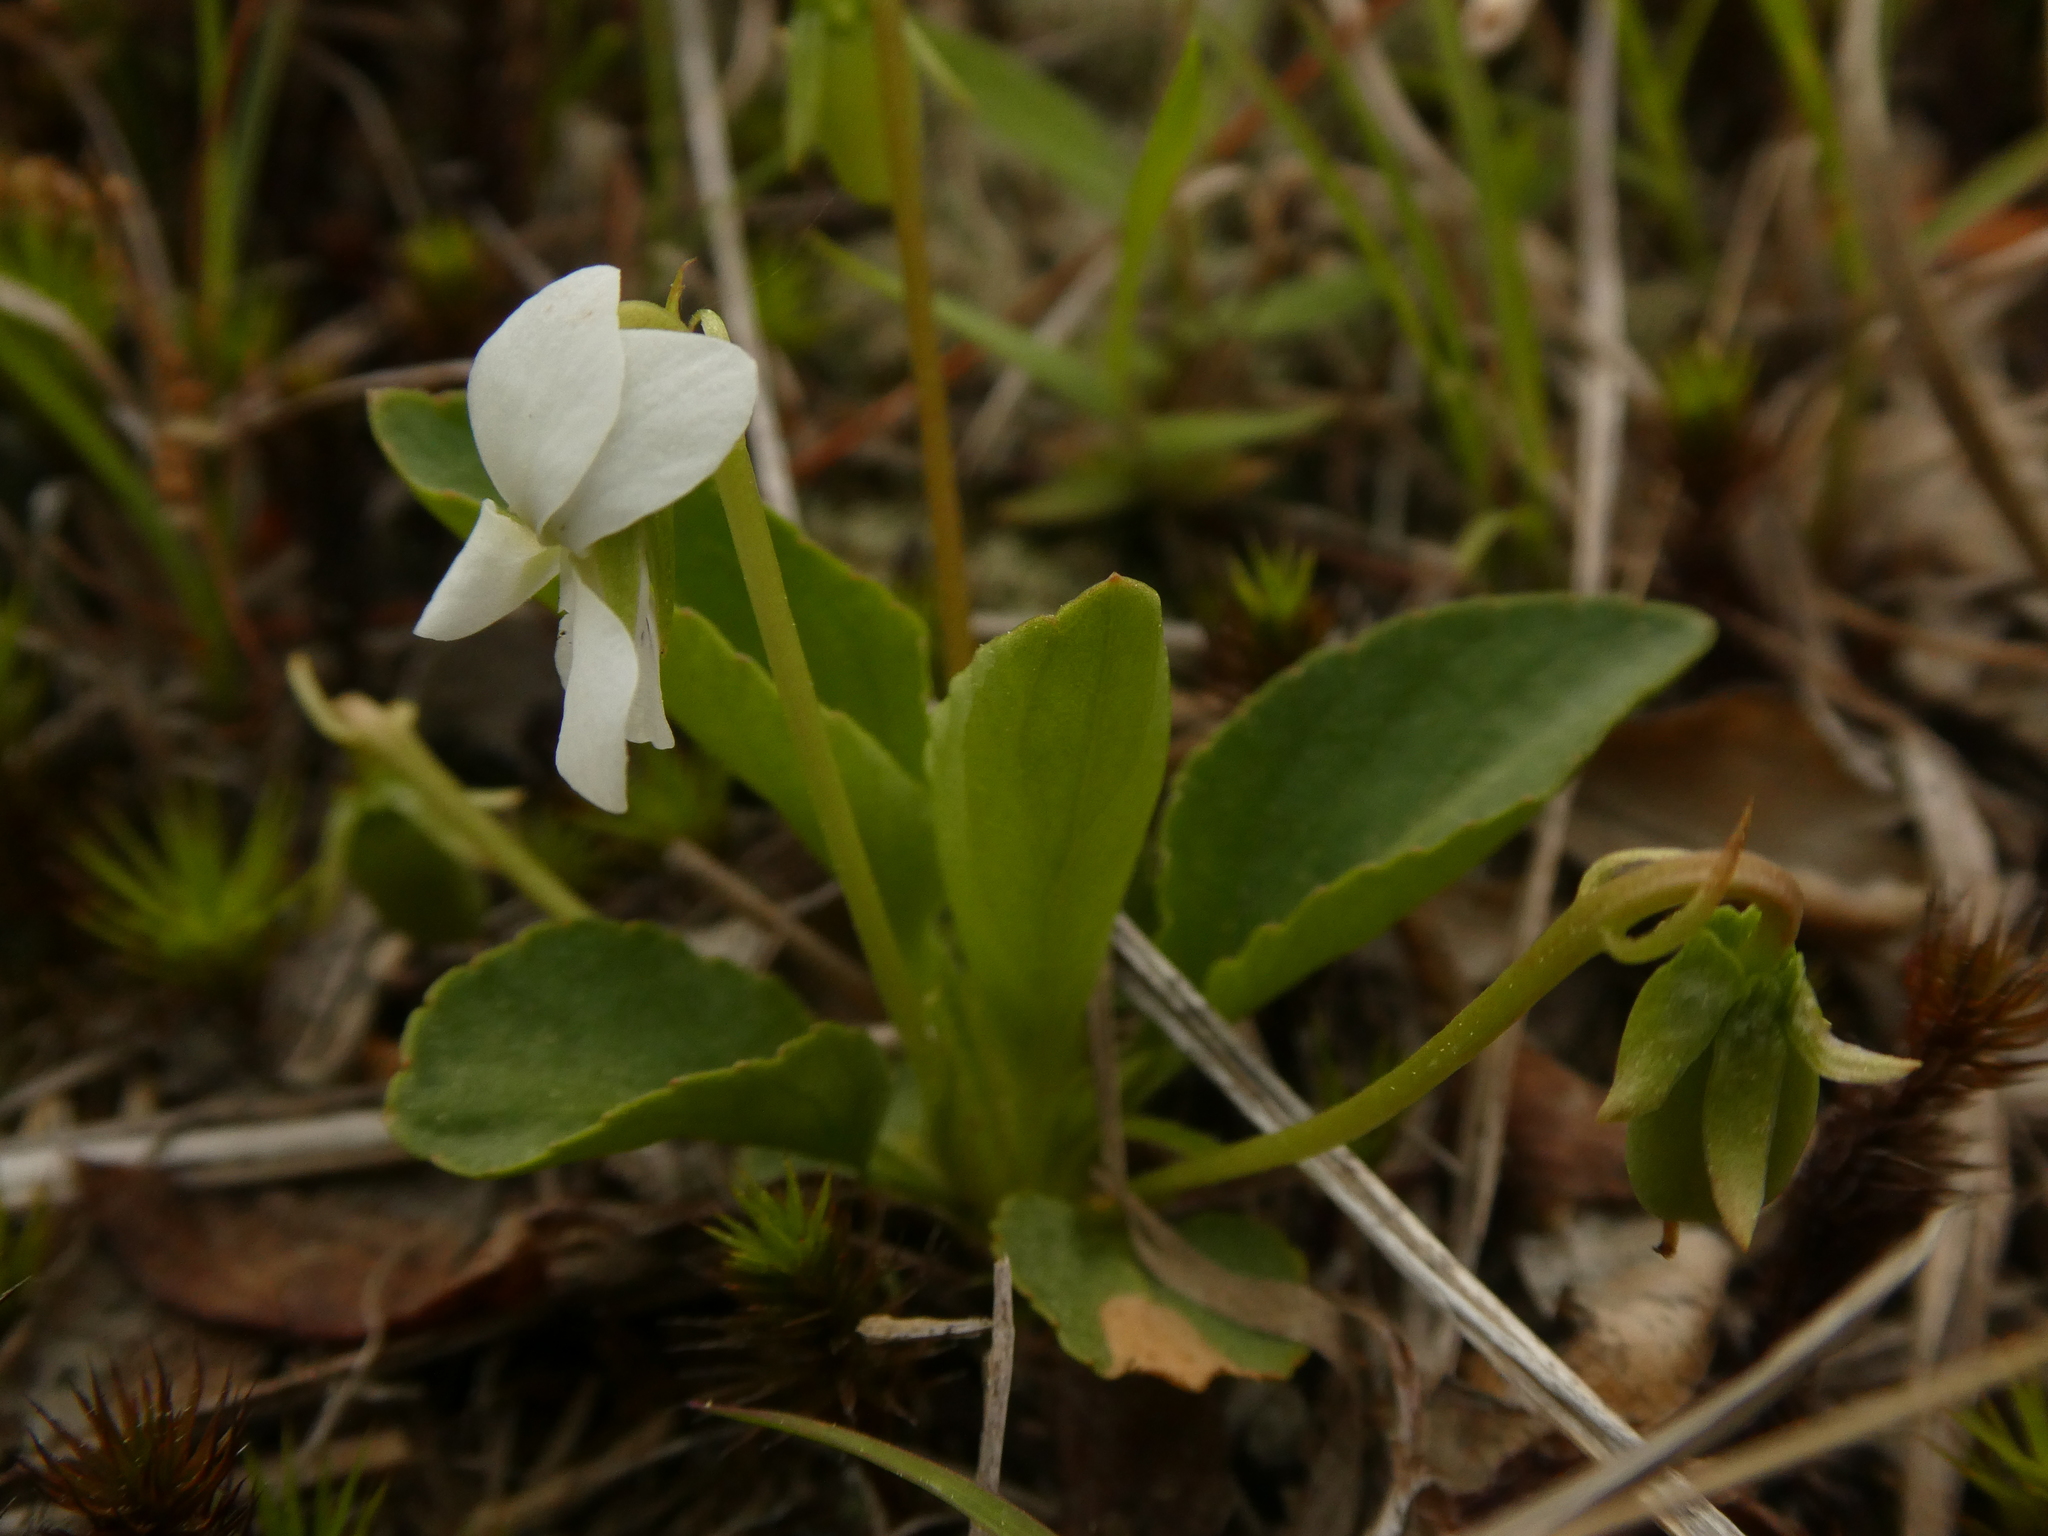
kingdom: Plantae
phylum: Tracheophyta
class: Magnoliopsida
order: Malpighiales
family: Violaceae
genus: Viola
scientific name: Viola primulifolia
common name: Primrose-leaf violet
